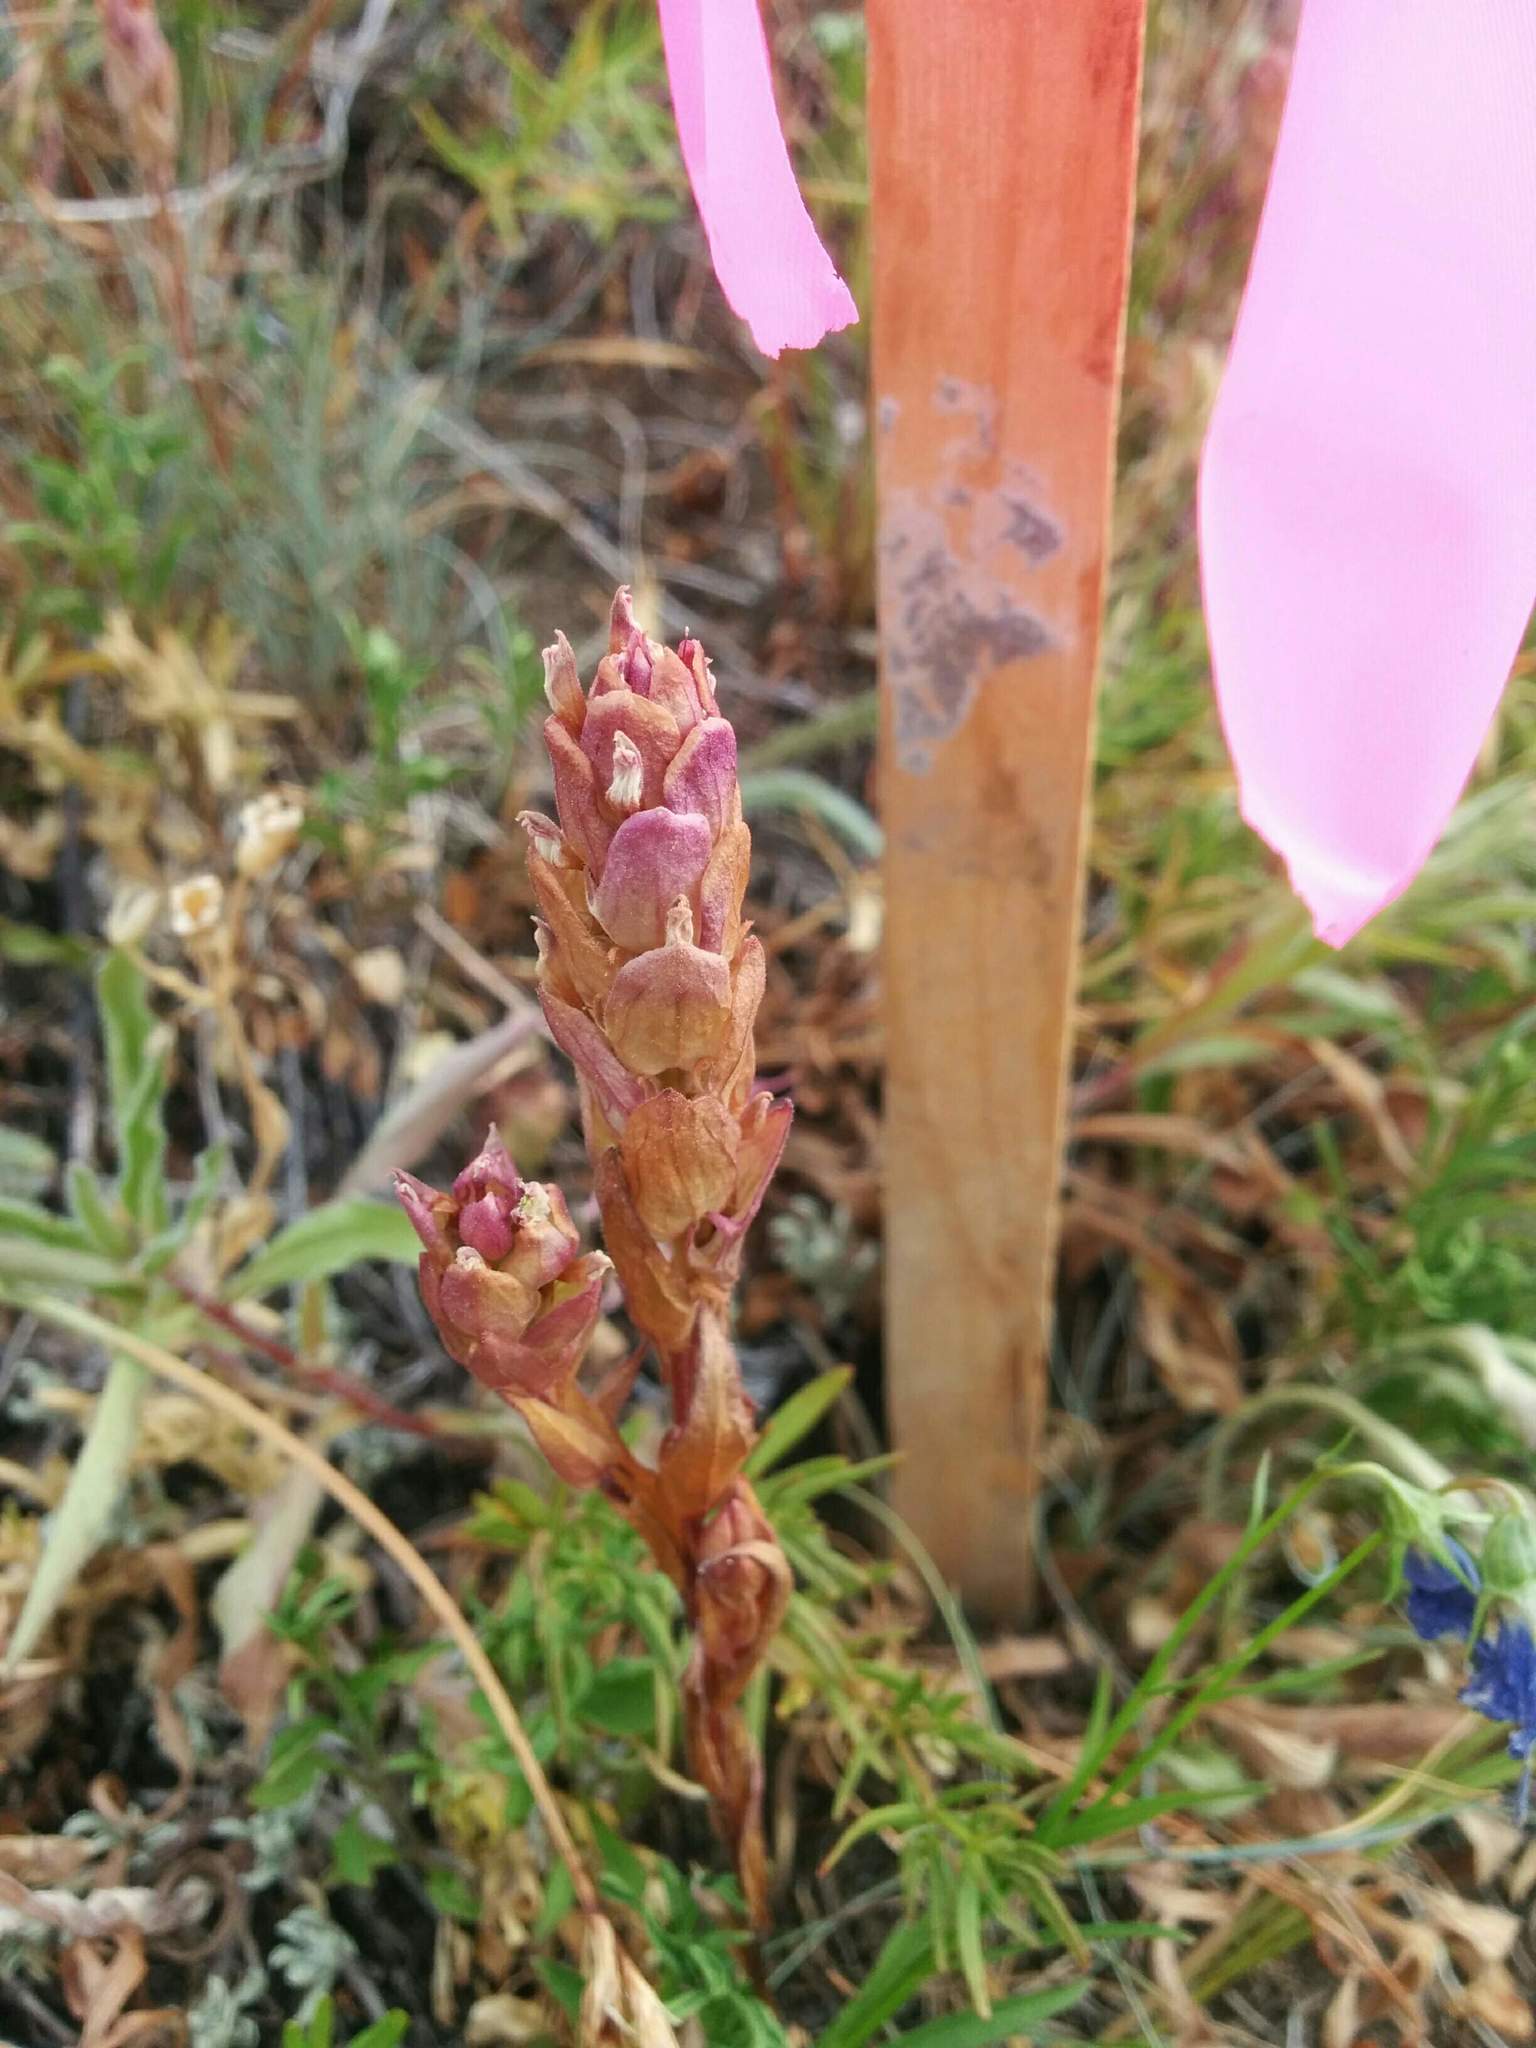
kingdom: Plantae
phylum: Tracheophyta
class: Magnoliopsida
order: Lamiales
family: Orobanchaceae
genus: Orthocarpus
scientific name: Orthocarpus imbricatus
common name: Mountain owl's-clover
